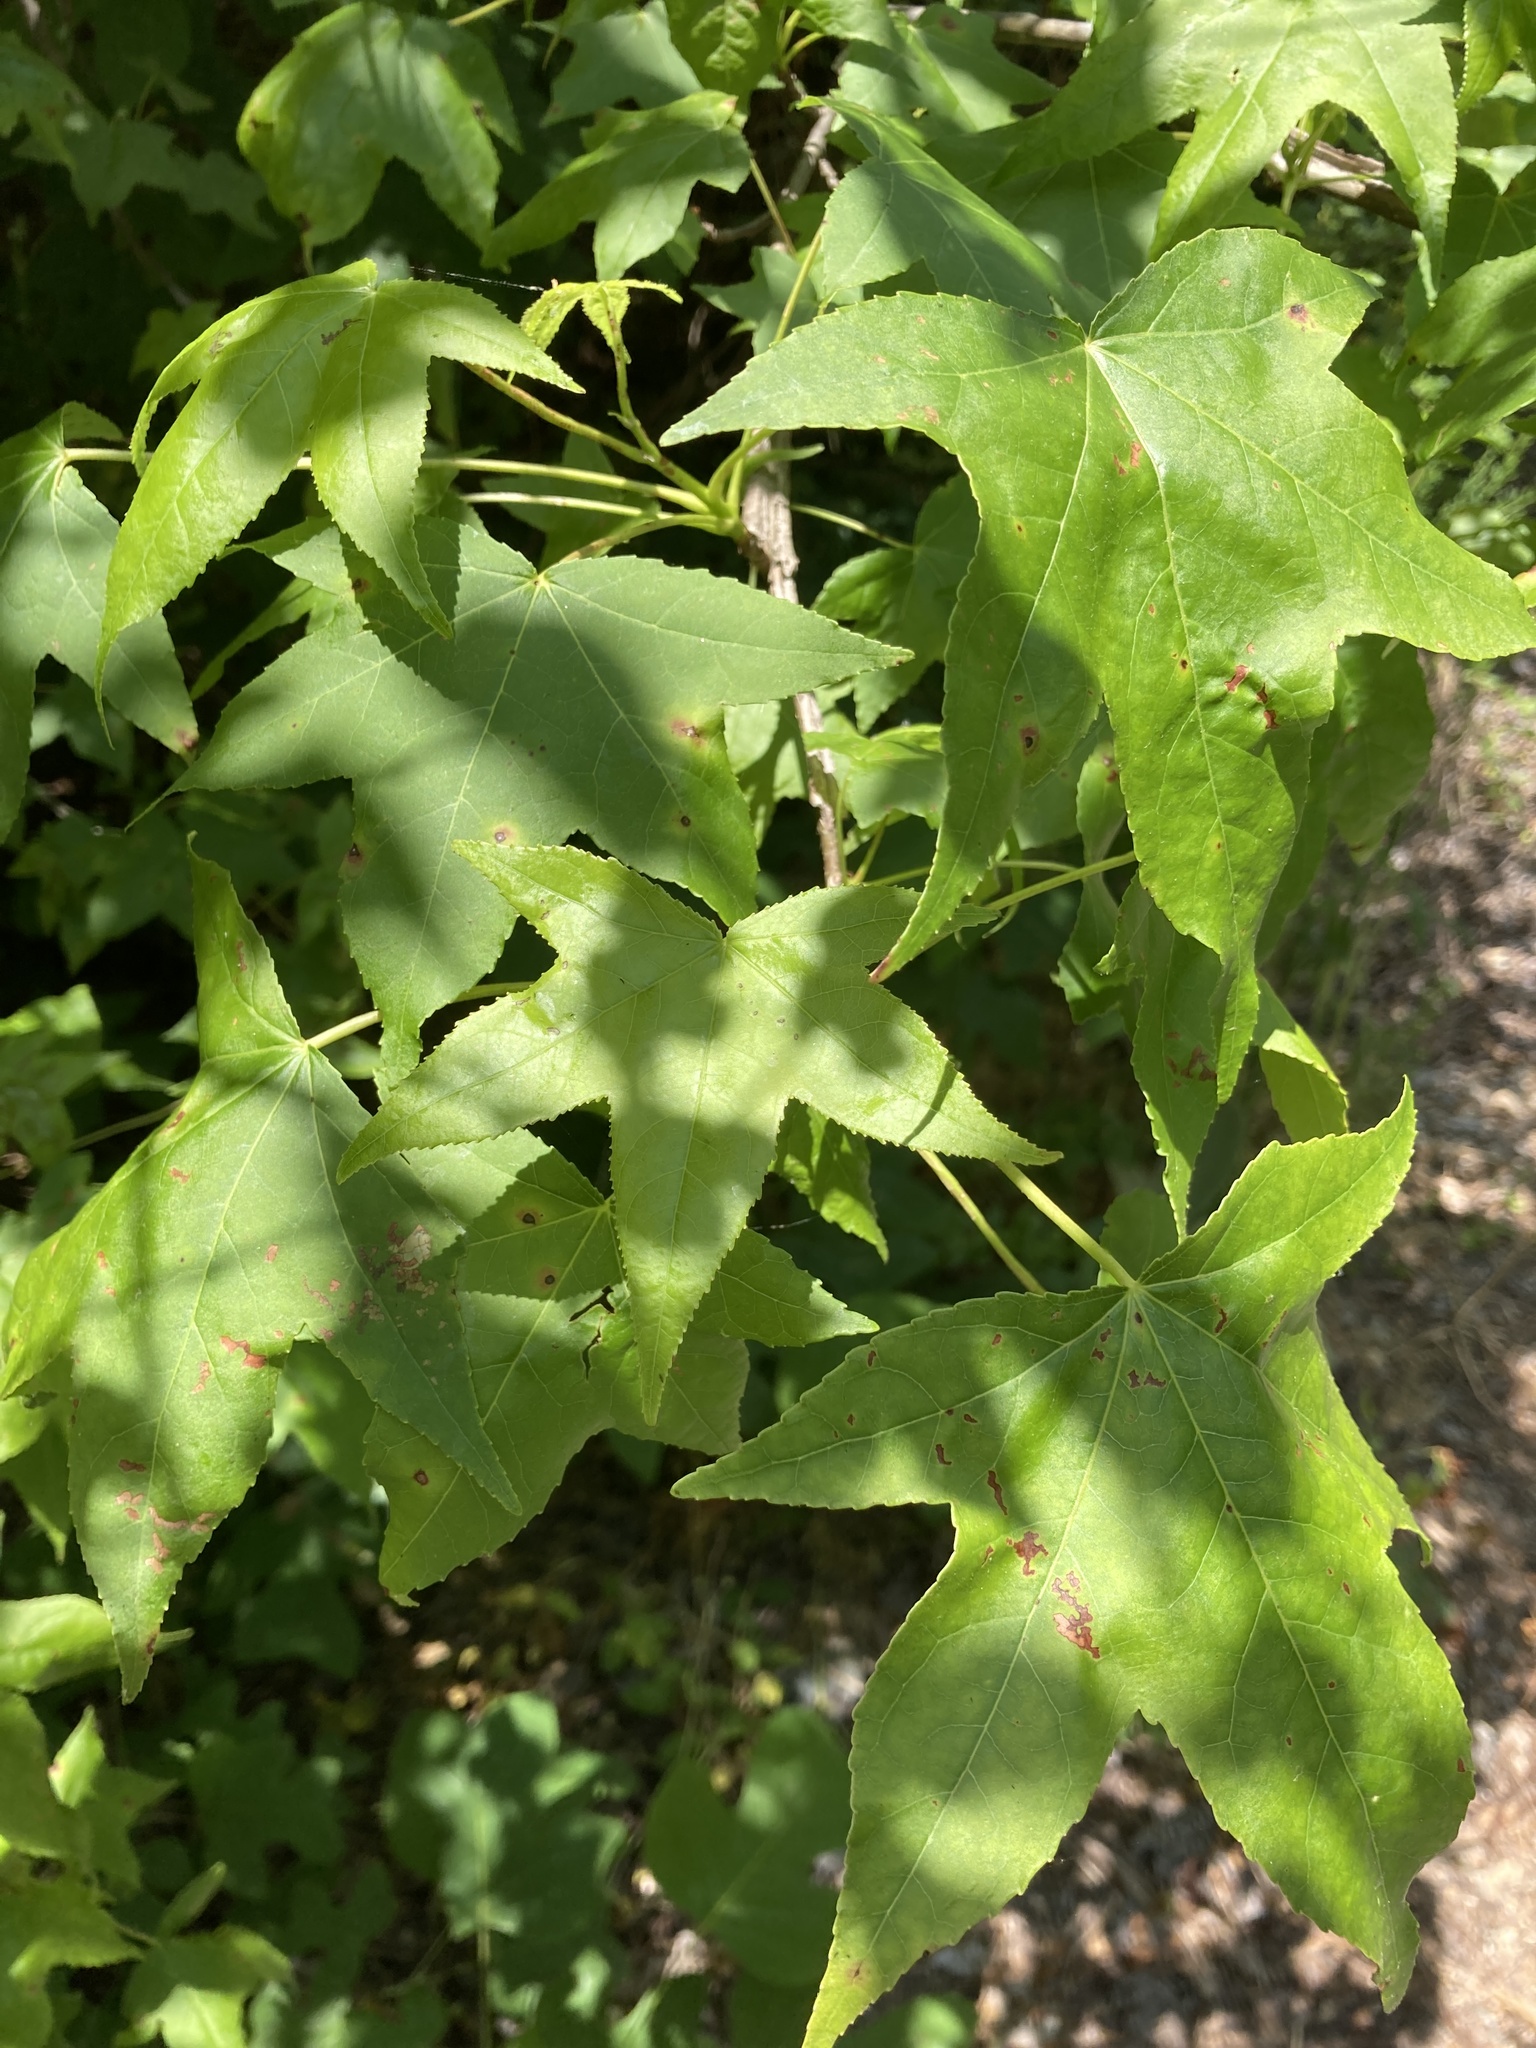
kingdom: Plantae
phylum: Tracheophyta
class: Magnoliopsida
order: Saxifragales
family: Altingiaceae
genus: Liquidambar
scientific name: Liquidambar styraciflua
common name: Sweet gum
